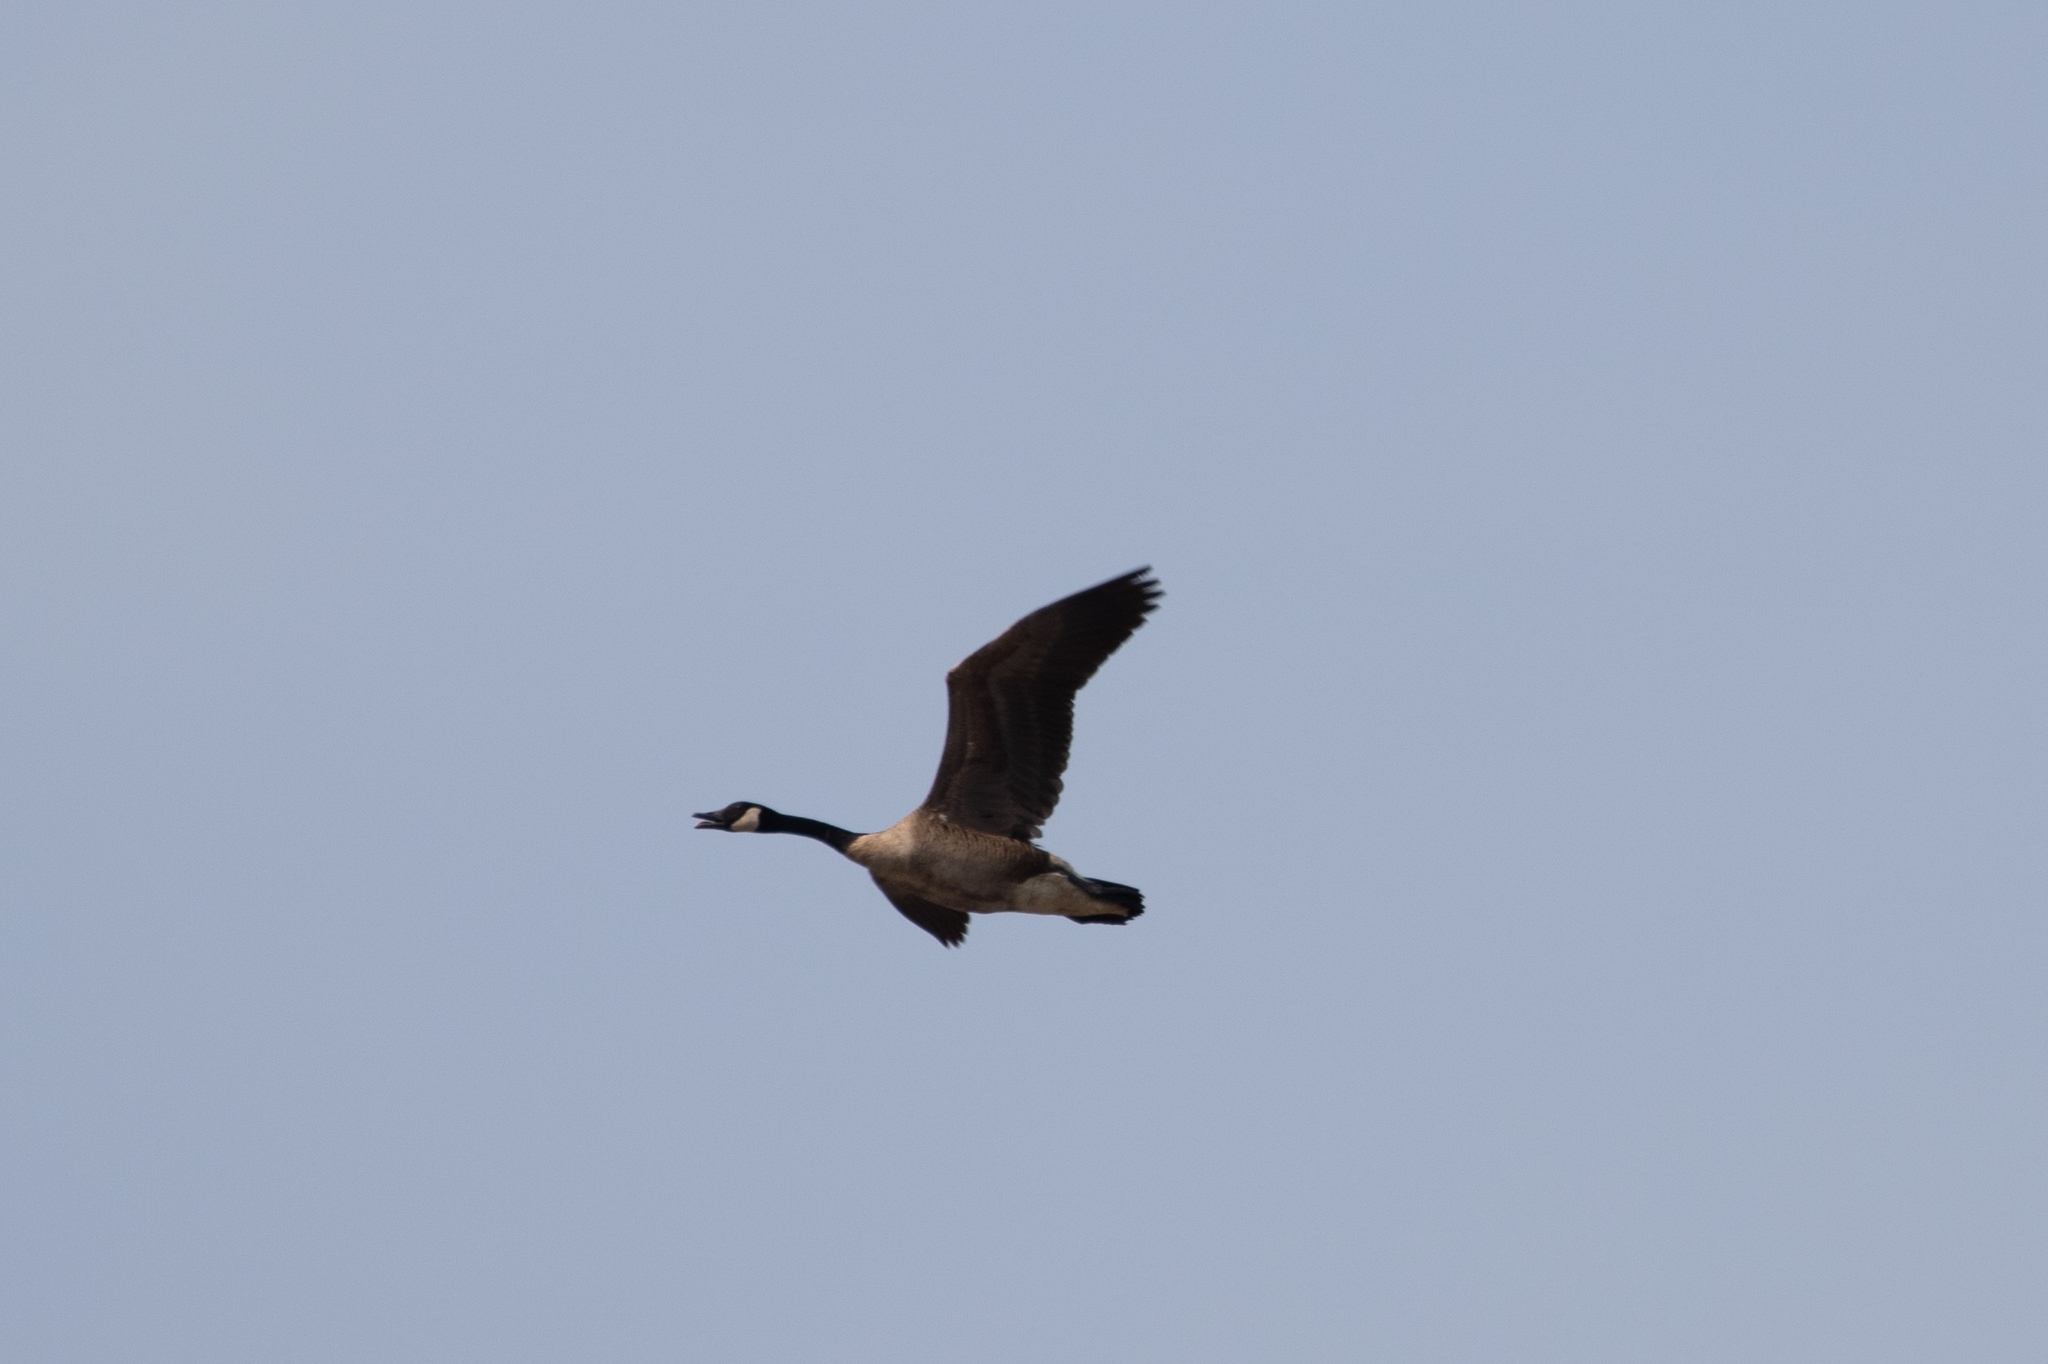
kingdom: Animalia
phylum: Chordata
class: Aves
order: Anseriformes
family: Anatidae
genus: Branta
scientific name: Branta canadensis
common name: Canada goose
